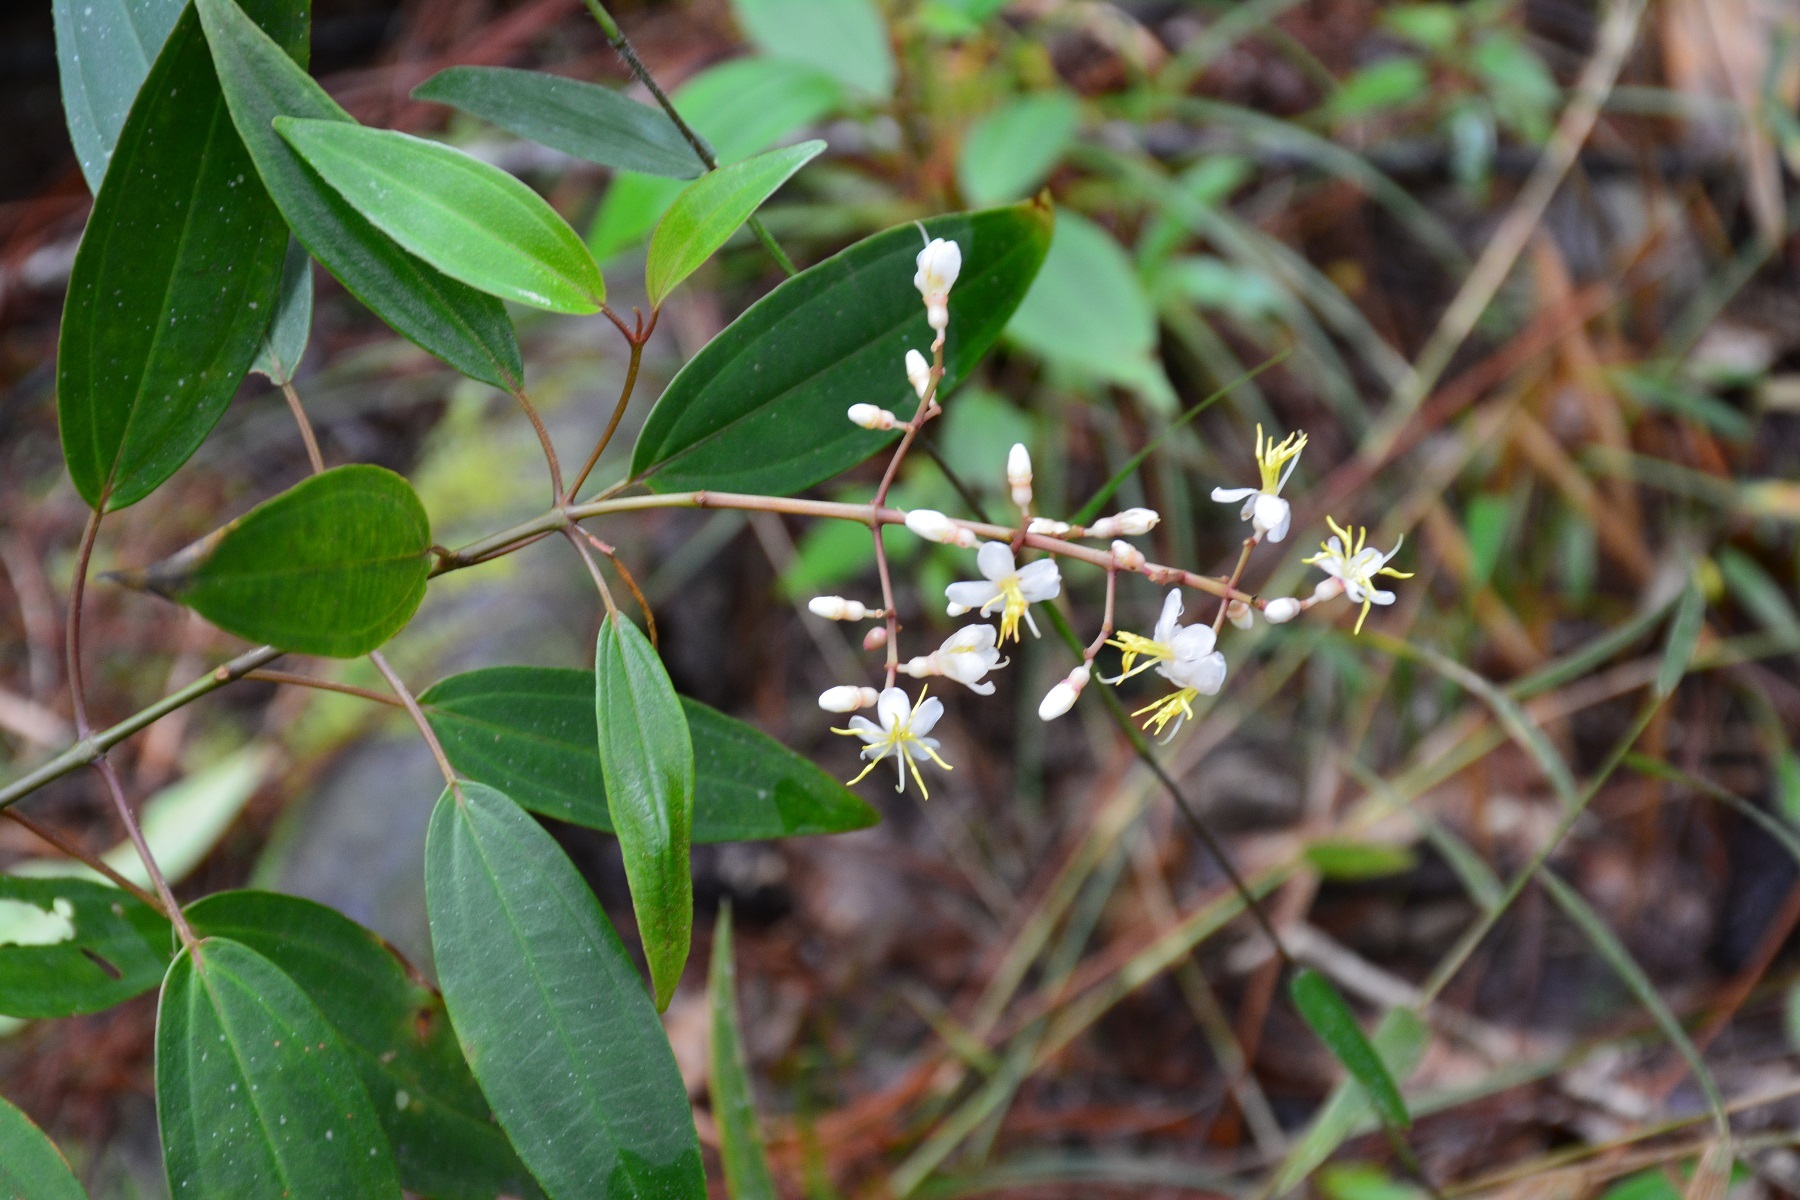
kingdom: Plantae
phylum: Tracheophyta
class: Magnoliopsida
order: Myrtales
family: Melastomataceae
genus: Miconia
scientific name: Miconia mexicana
